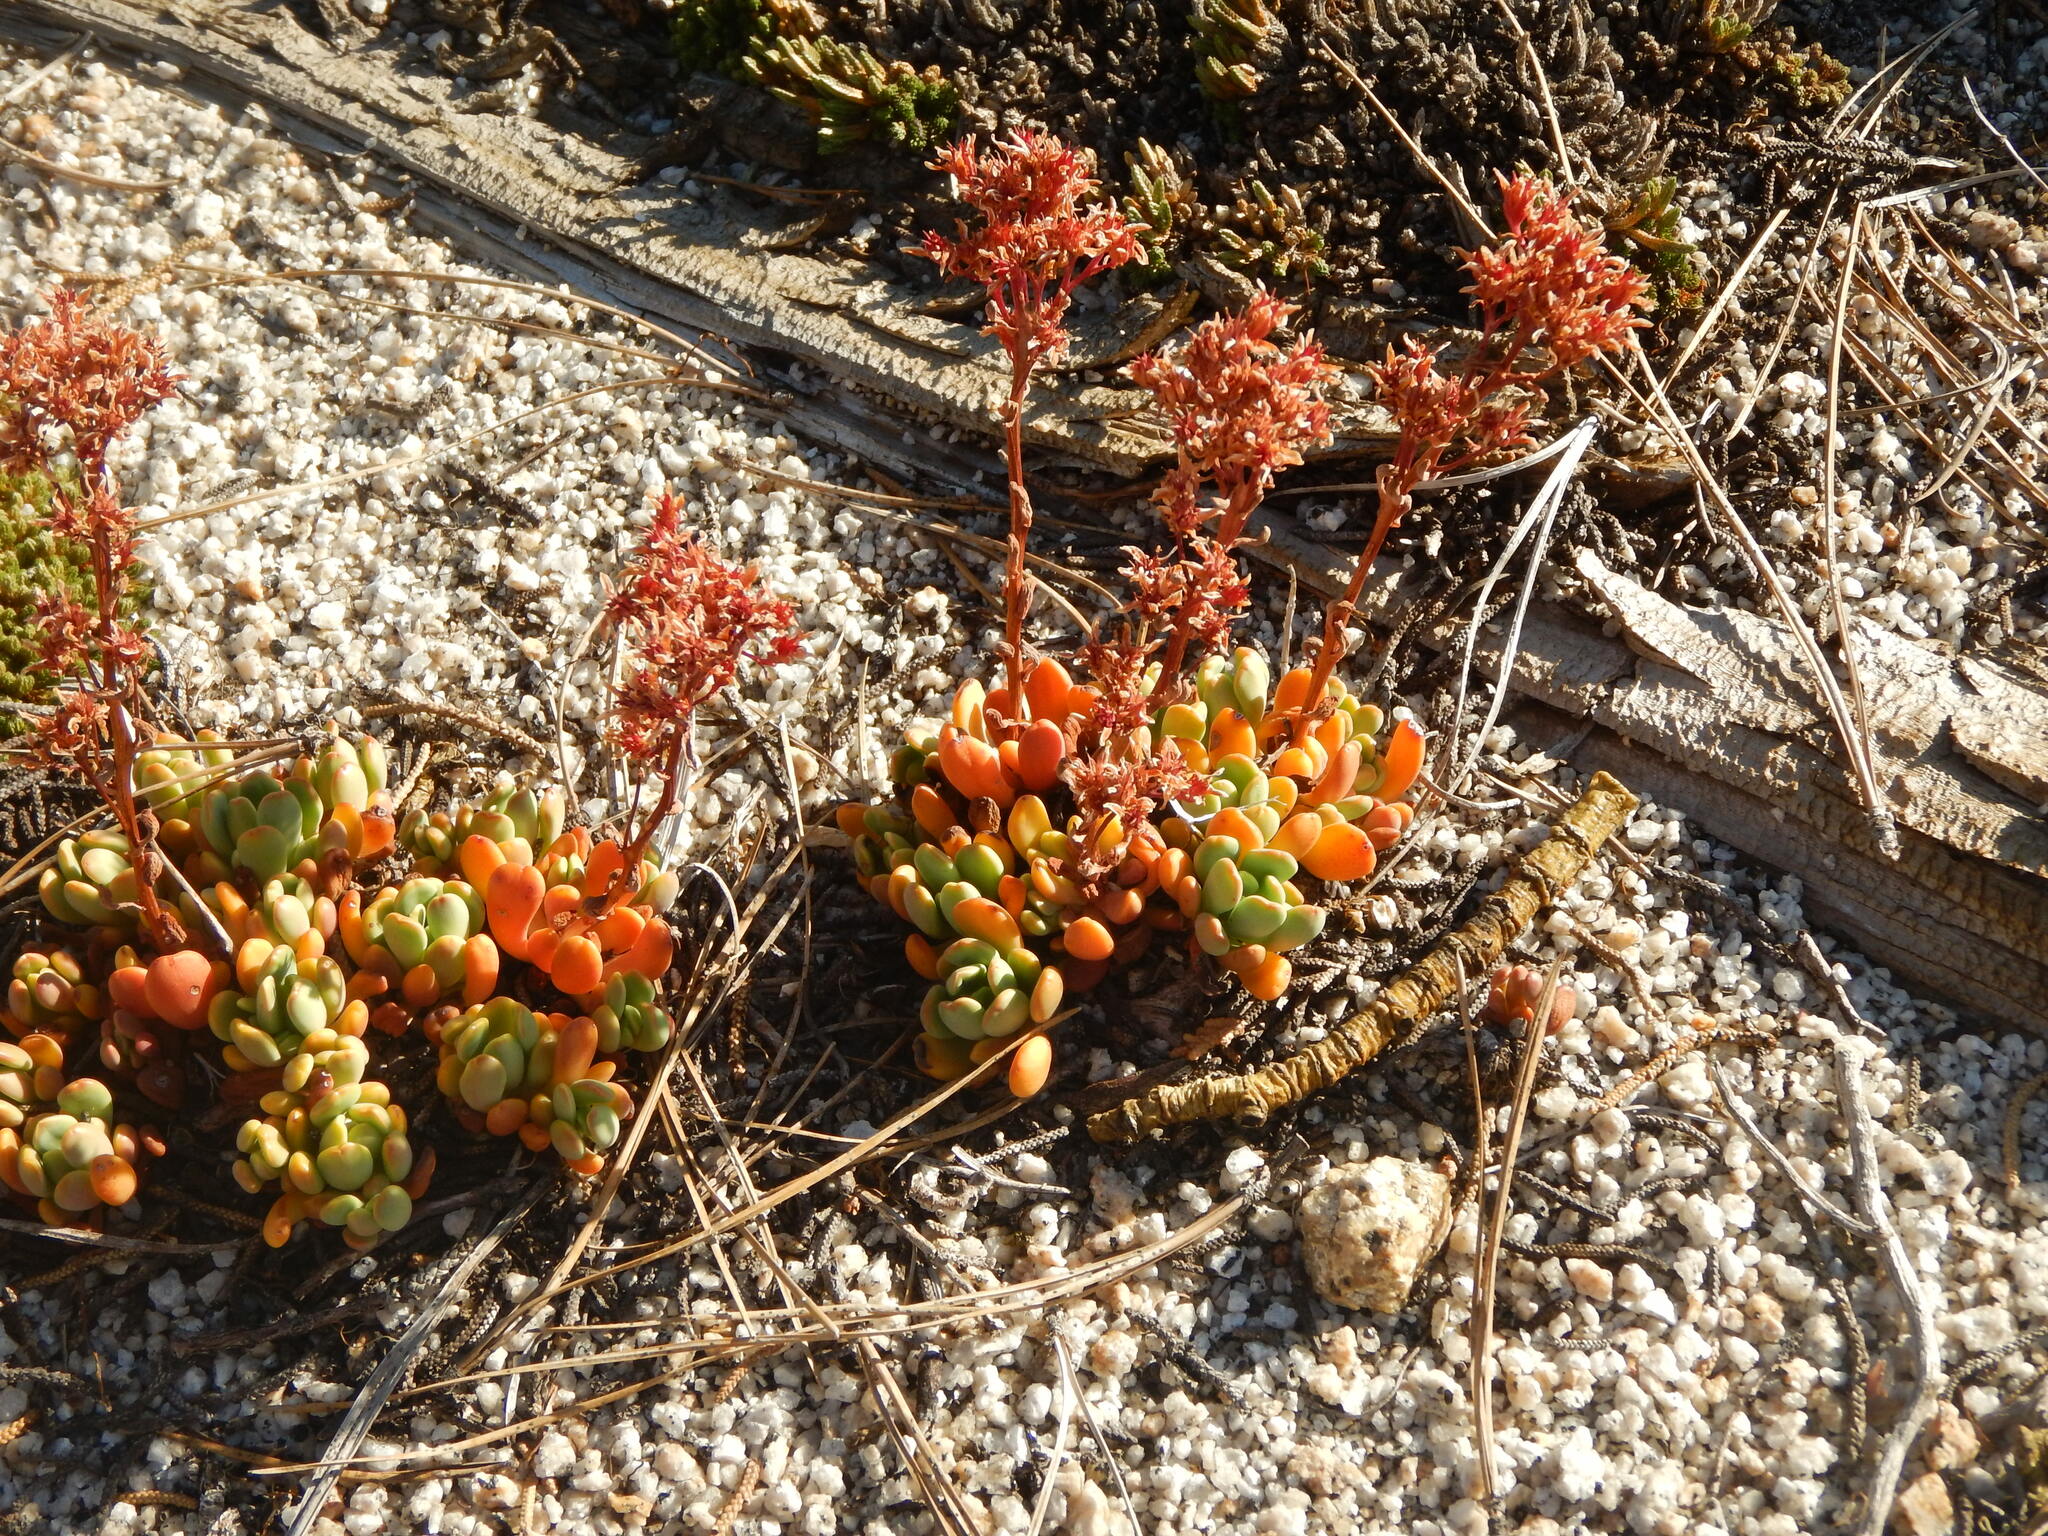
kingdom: Plantae
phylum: Tracheophyta
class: Magnoliopsida
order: Saxifragales
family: Crassulaceae
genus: Sedum
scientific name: Sedum obtusatum
